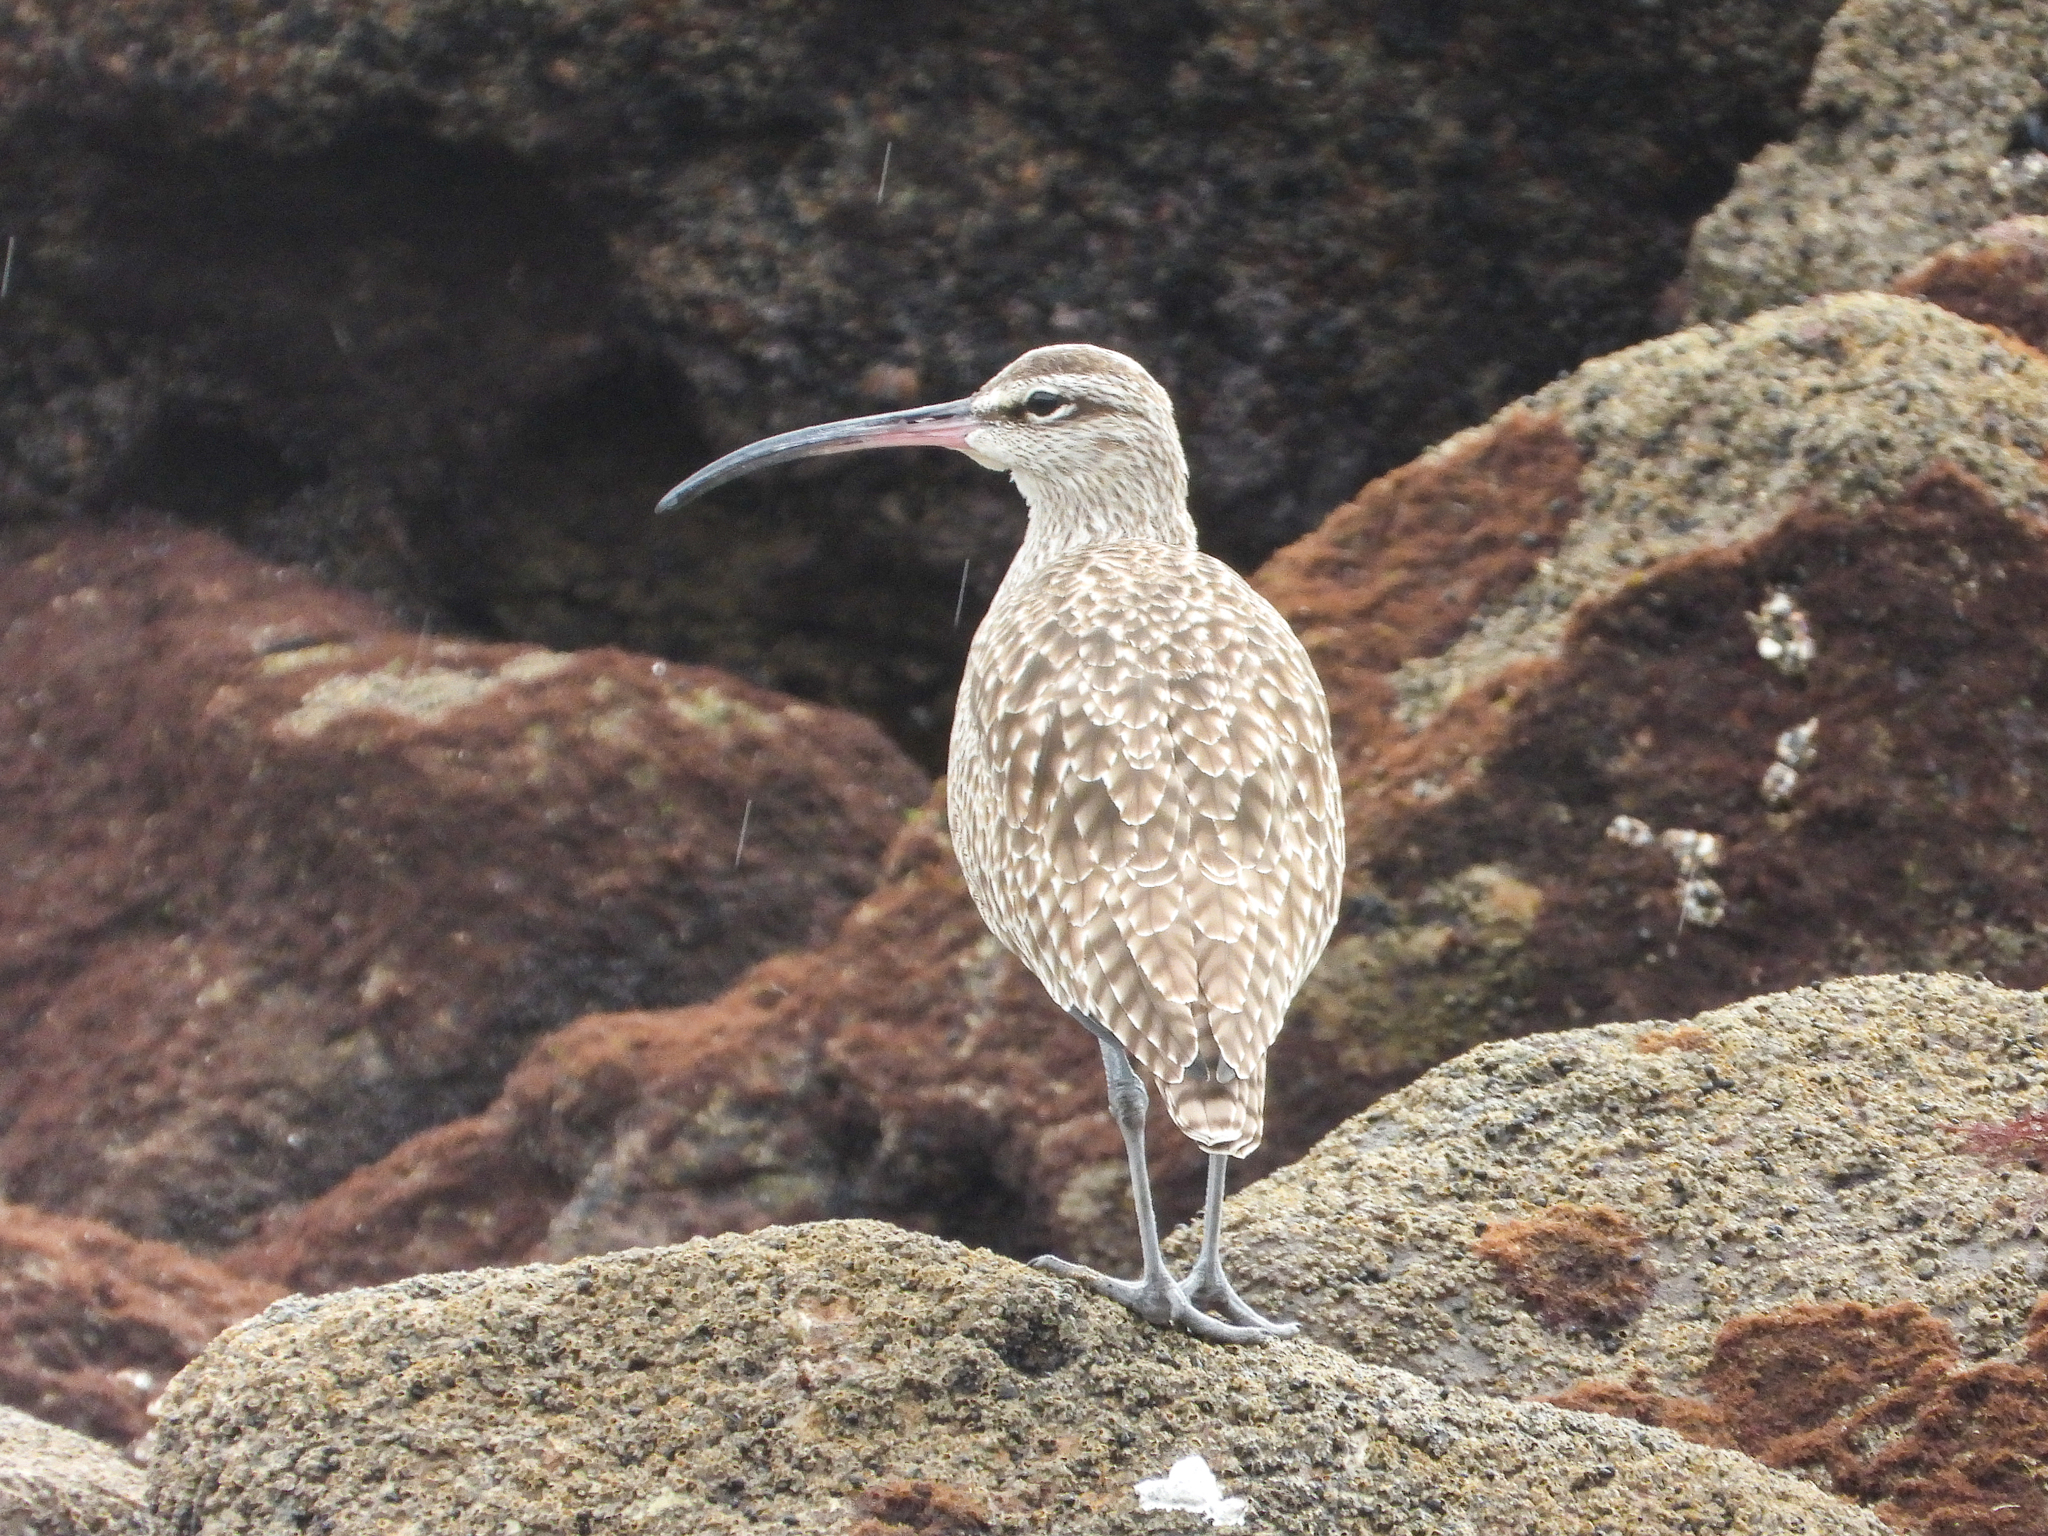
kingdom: Animalia
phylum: Chordata
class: Aves
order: Charadriiformes
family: Scolopacidae
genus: Numenius
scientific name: Numenius phaeopus
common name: Whimbrel
